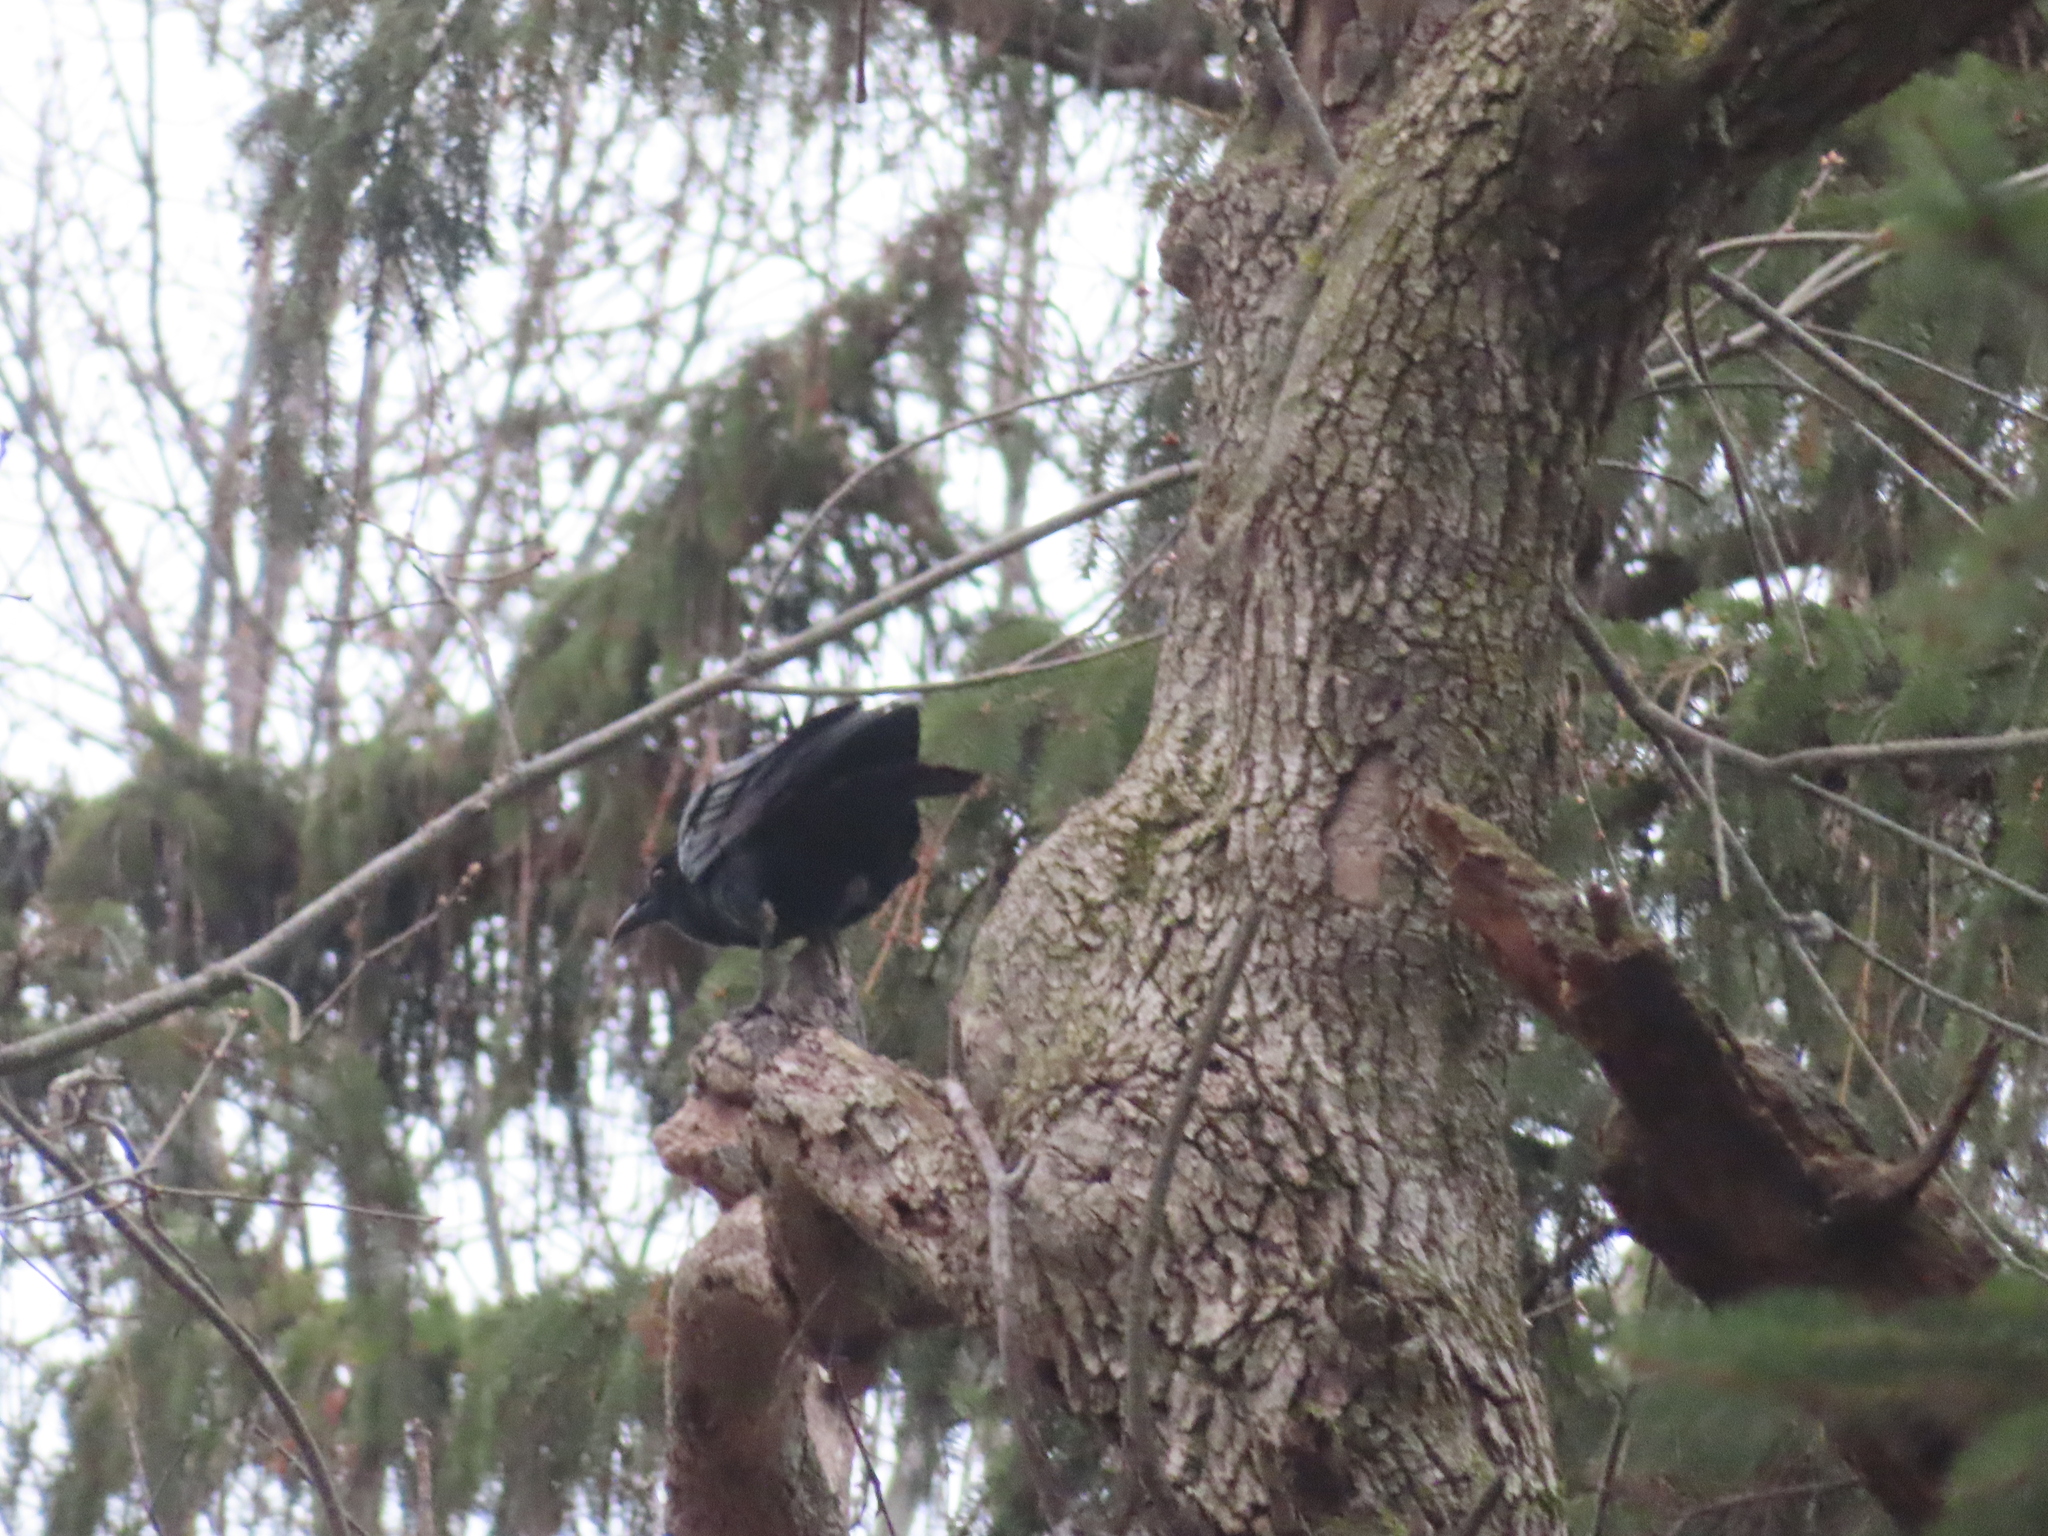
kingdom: Animalia
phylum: Chordata
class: Aves
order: Passeriformes
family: Corvidae
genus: Corvus
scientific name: Corvus brachyrhynchos
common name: American crow
